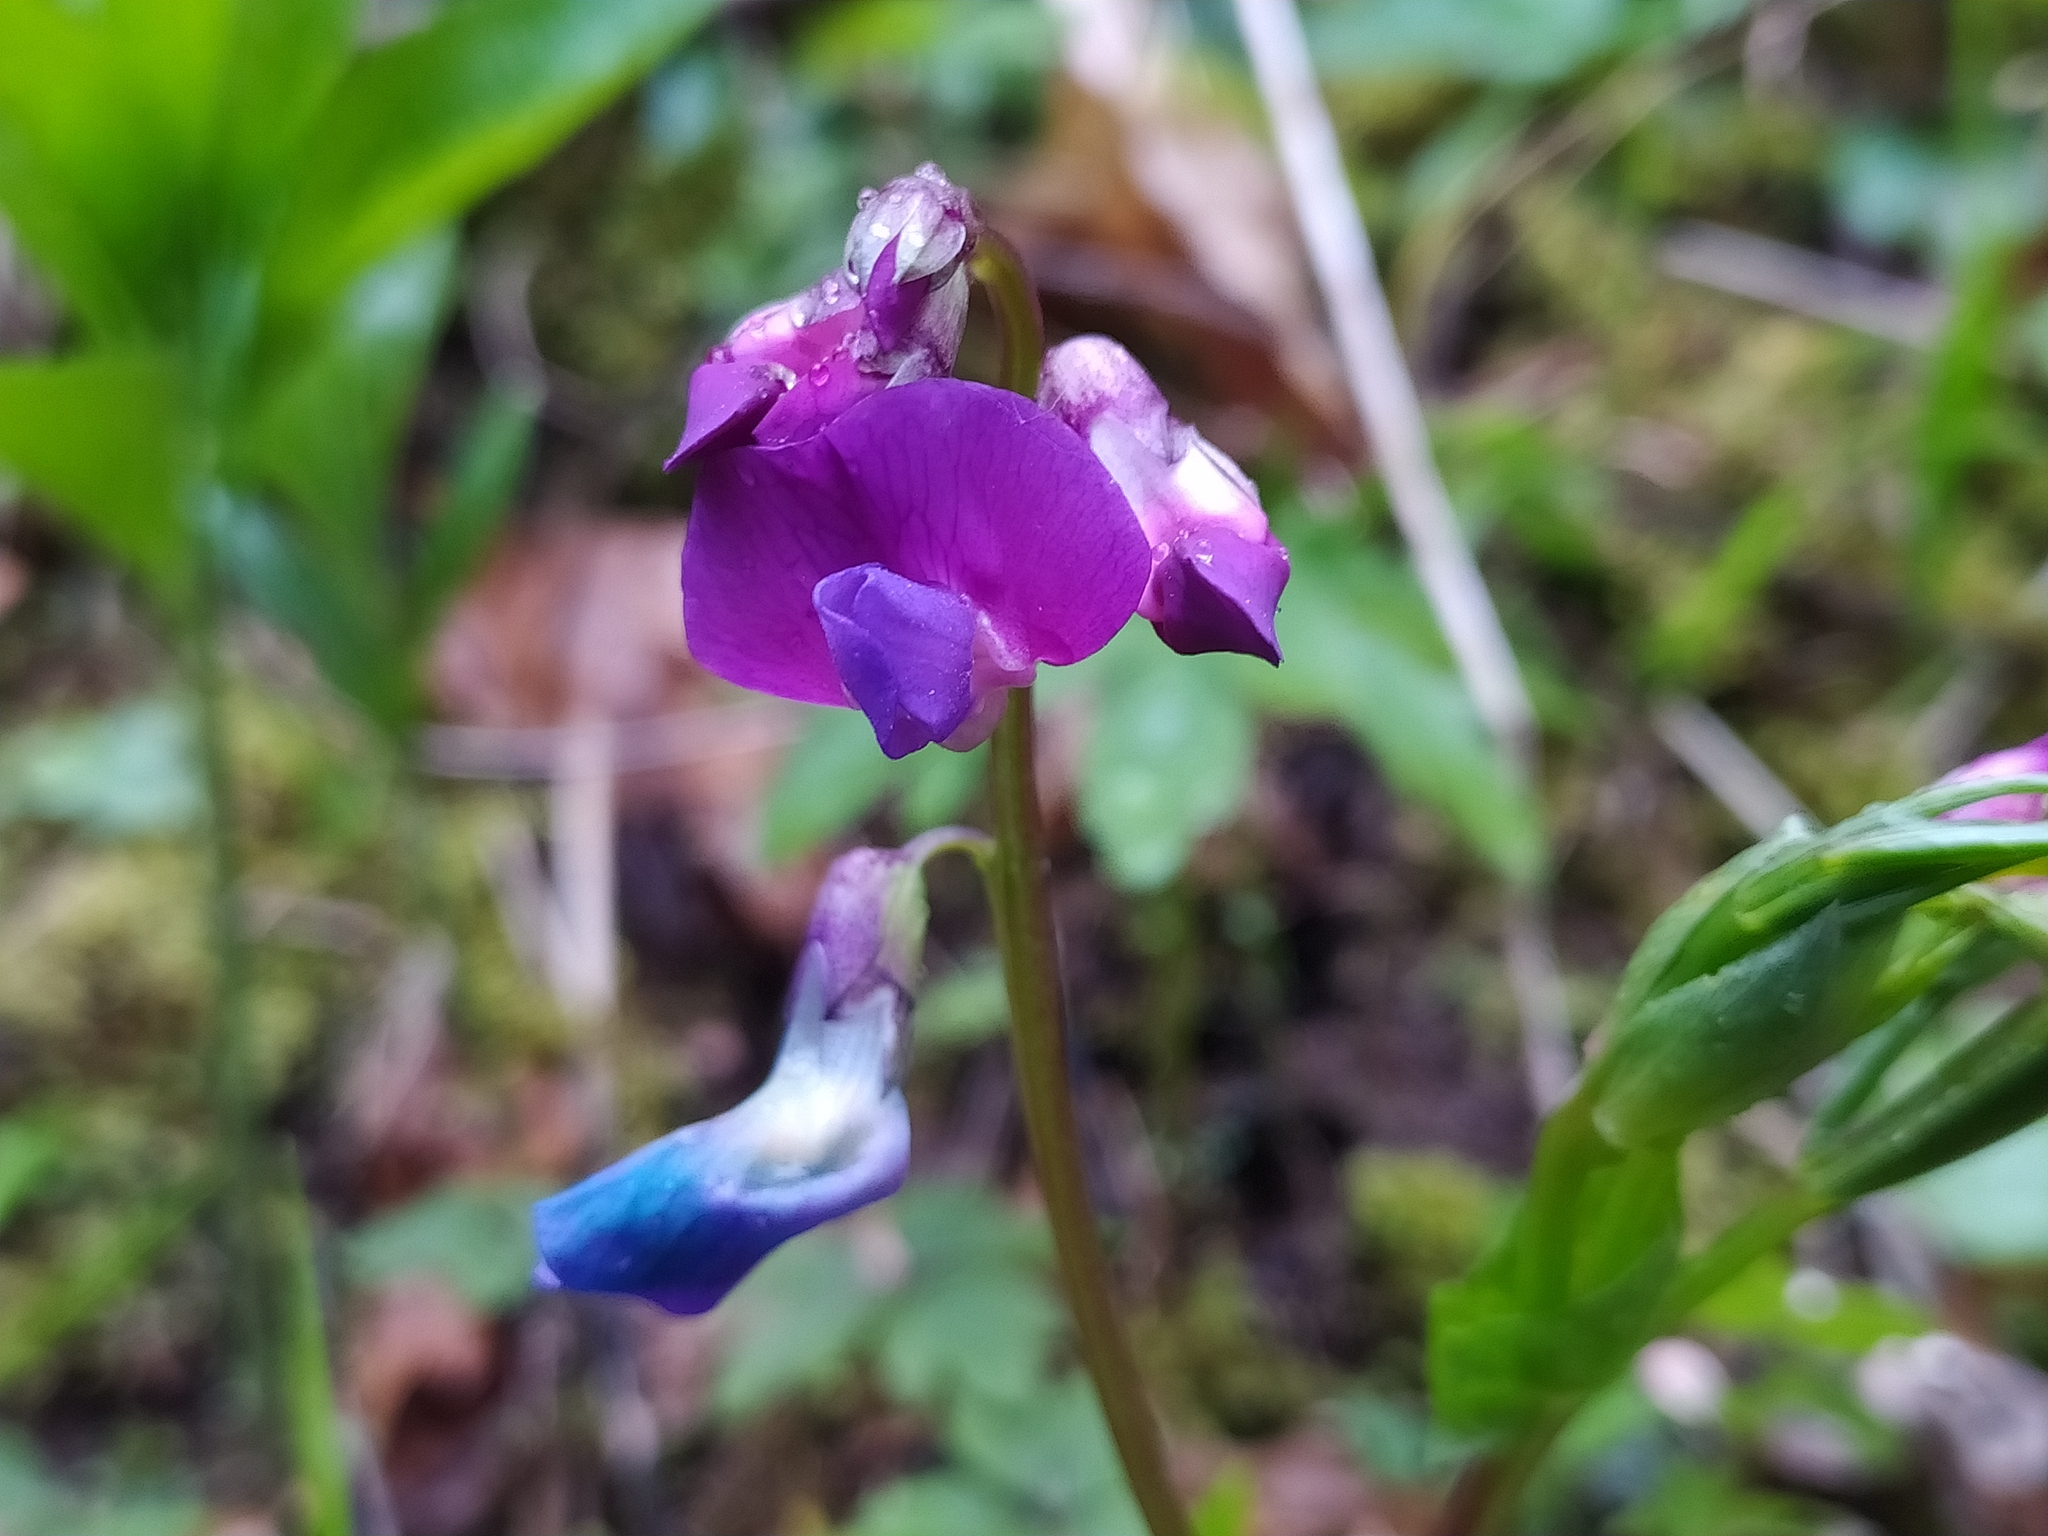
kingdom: Plantae
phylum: Tracheophyta
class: Magnoliopsida
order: Fabales
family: Fabaceae
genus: Lathyrus
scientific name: Lathyrus vernus
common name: Spring pea
